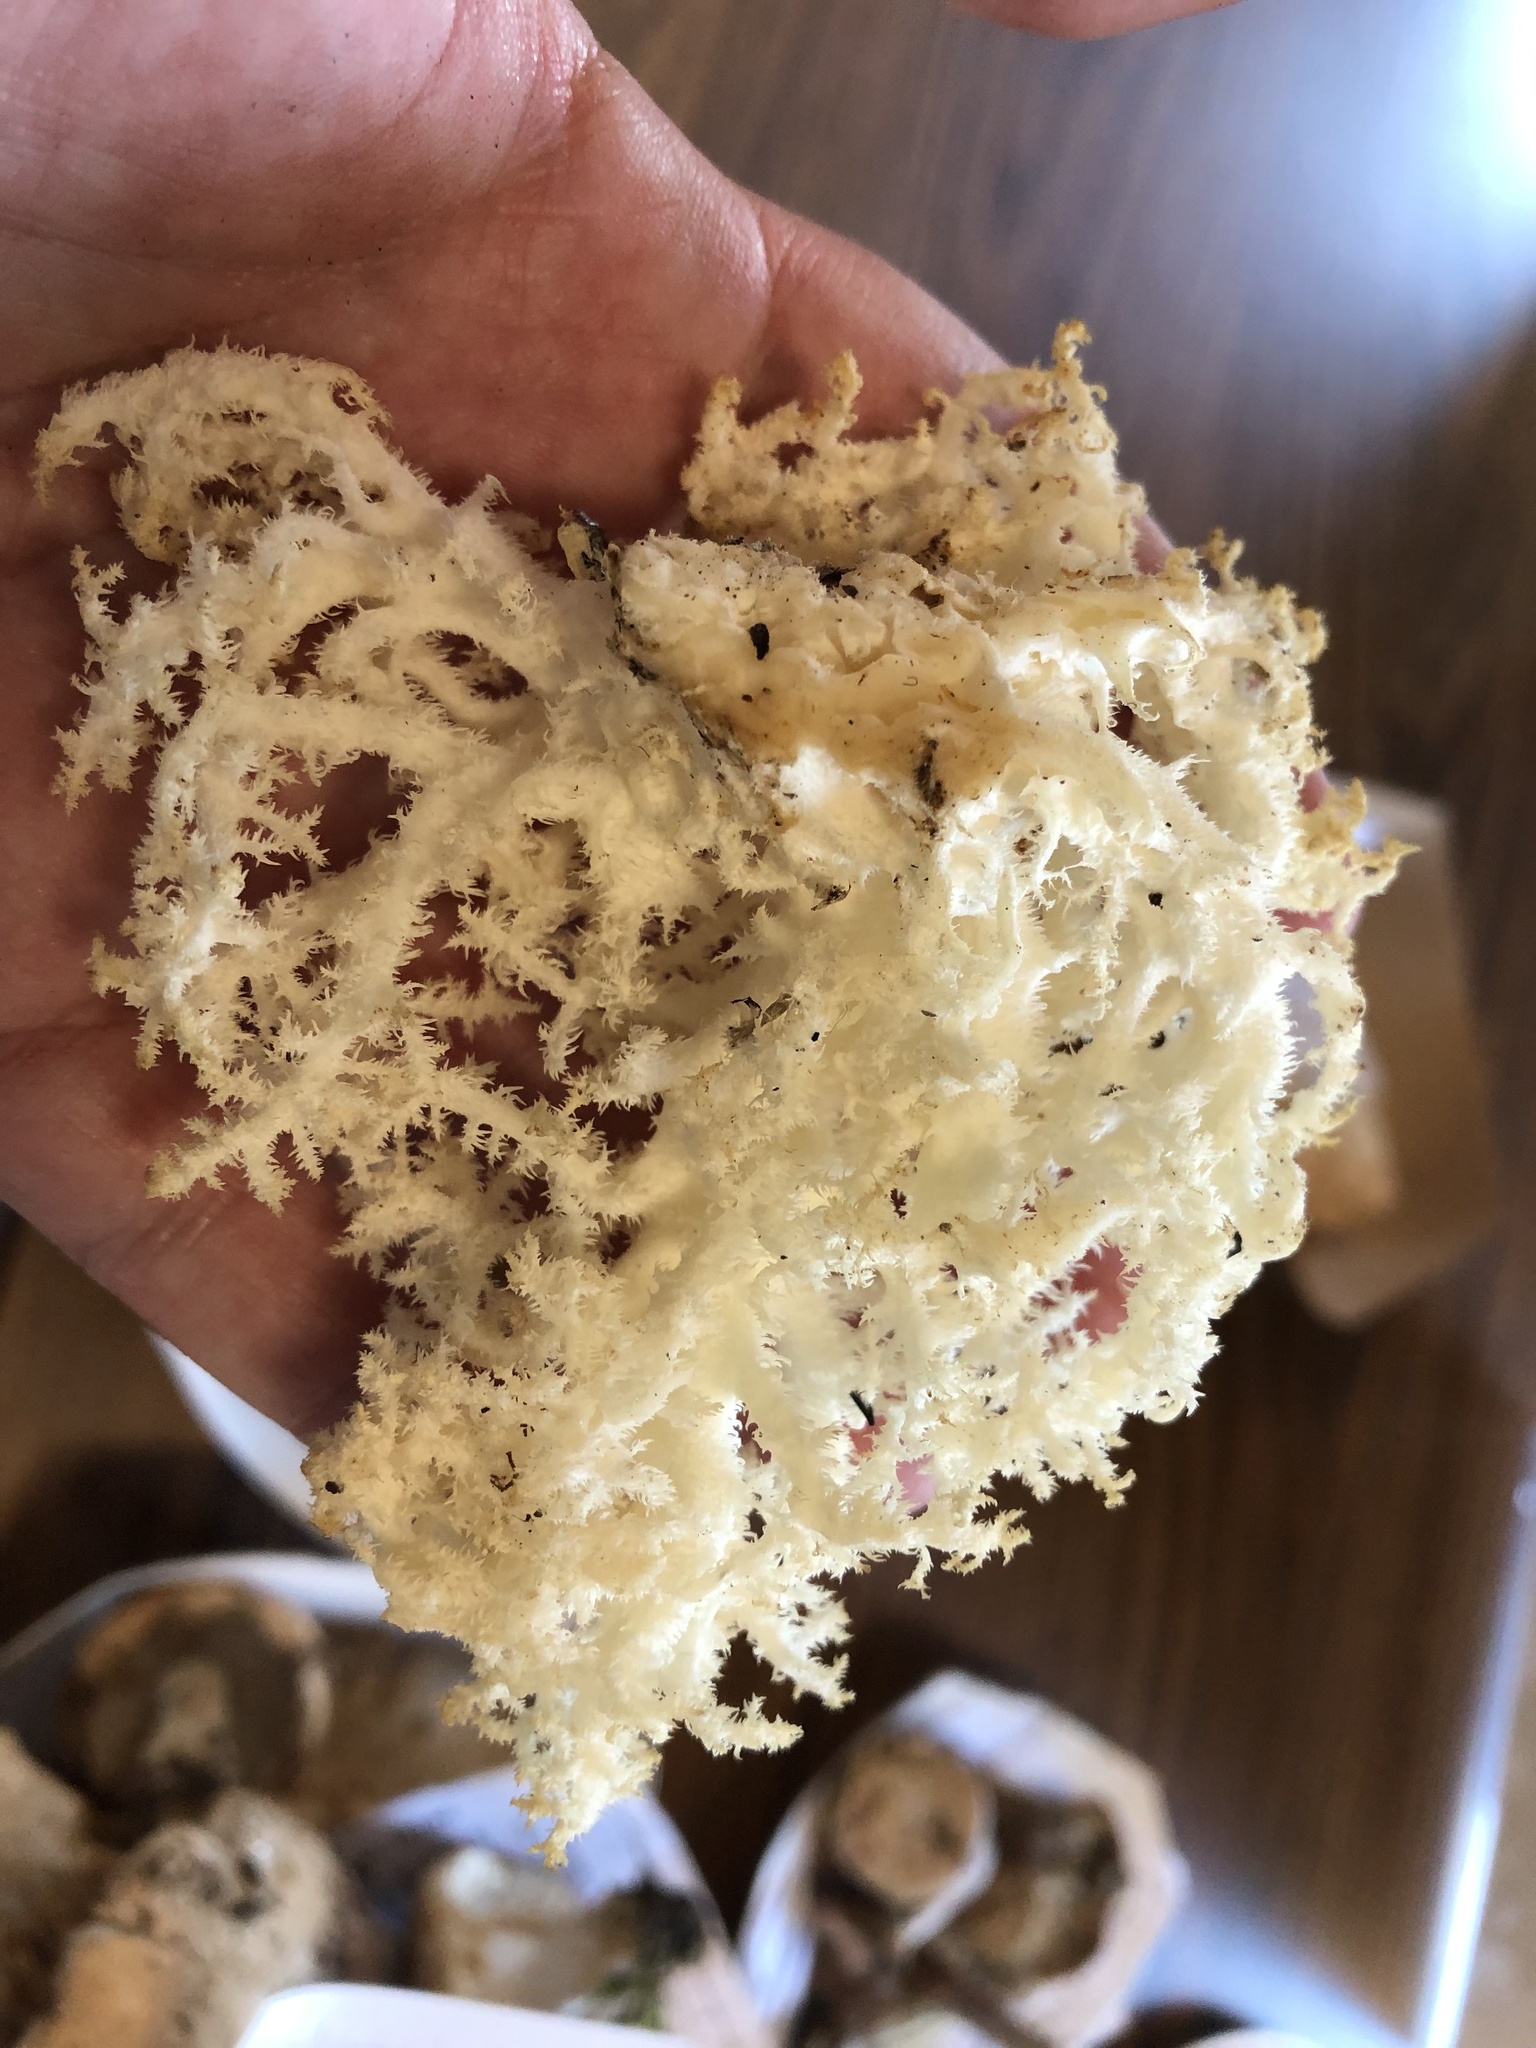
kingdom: Fungi
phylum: Basidiomycota
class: Agaricomycetes
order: Russulales
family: Hericiaceae
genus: Hericium
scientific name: Hericium coralloides
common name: Coral tooth
